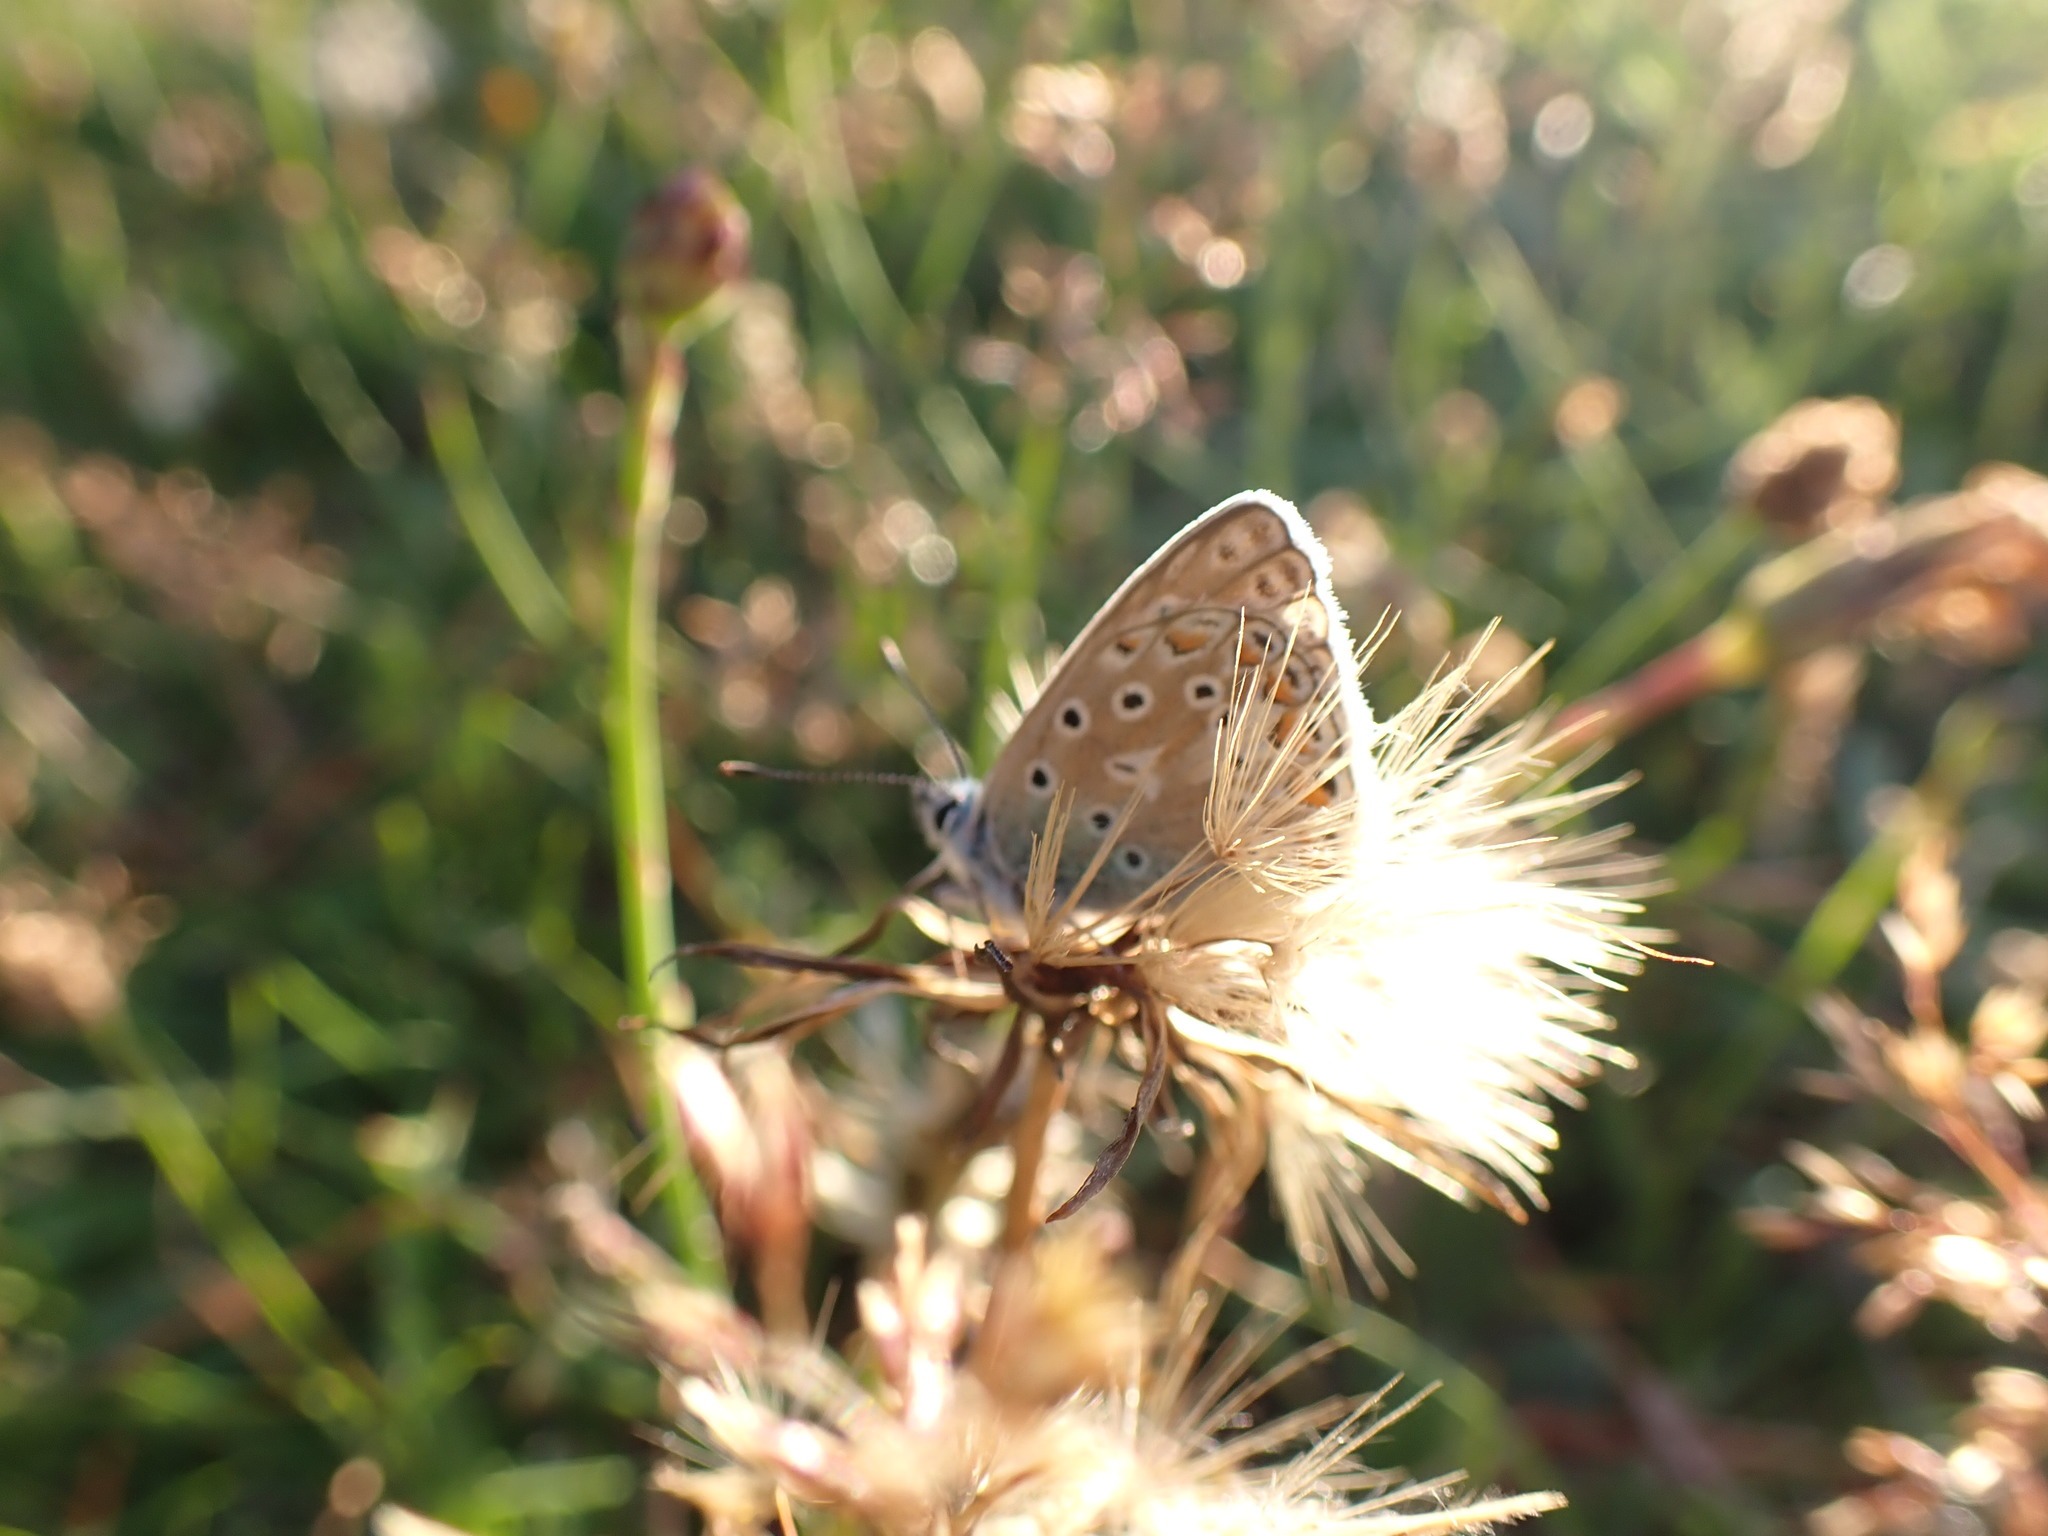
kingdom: Animalia
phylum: Arthropoda
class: Insecta
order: Lepidoptera
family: Lycaenidae
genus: Polyommatus
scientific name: Polyommatus icarus
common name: Common blue
